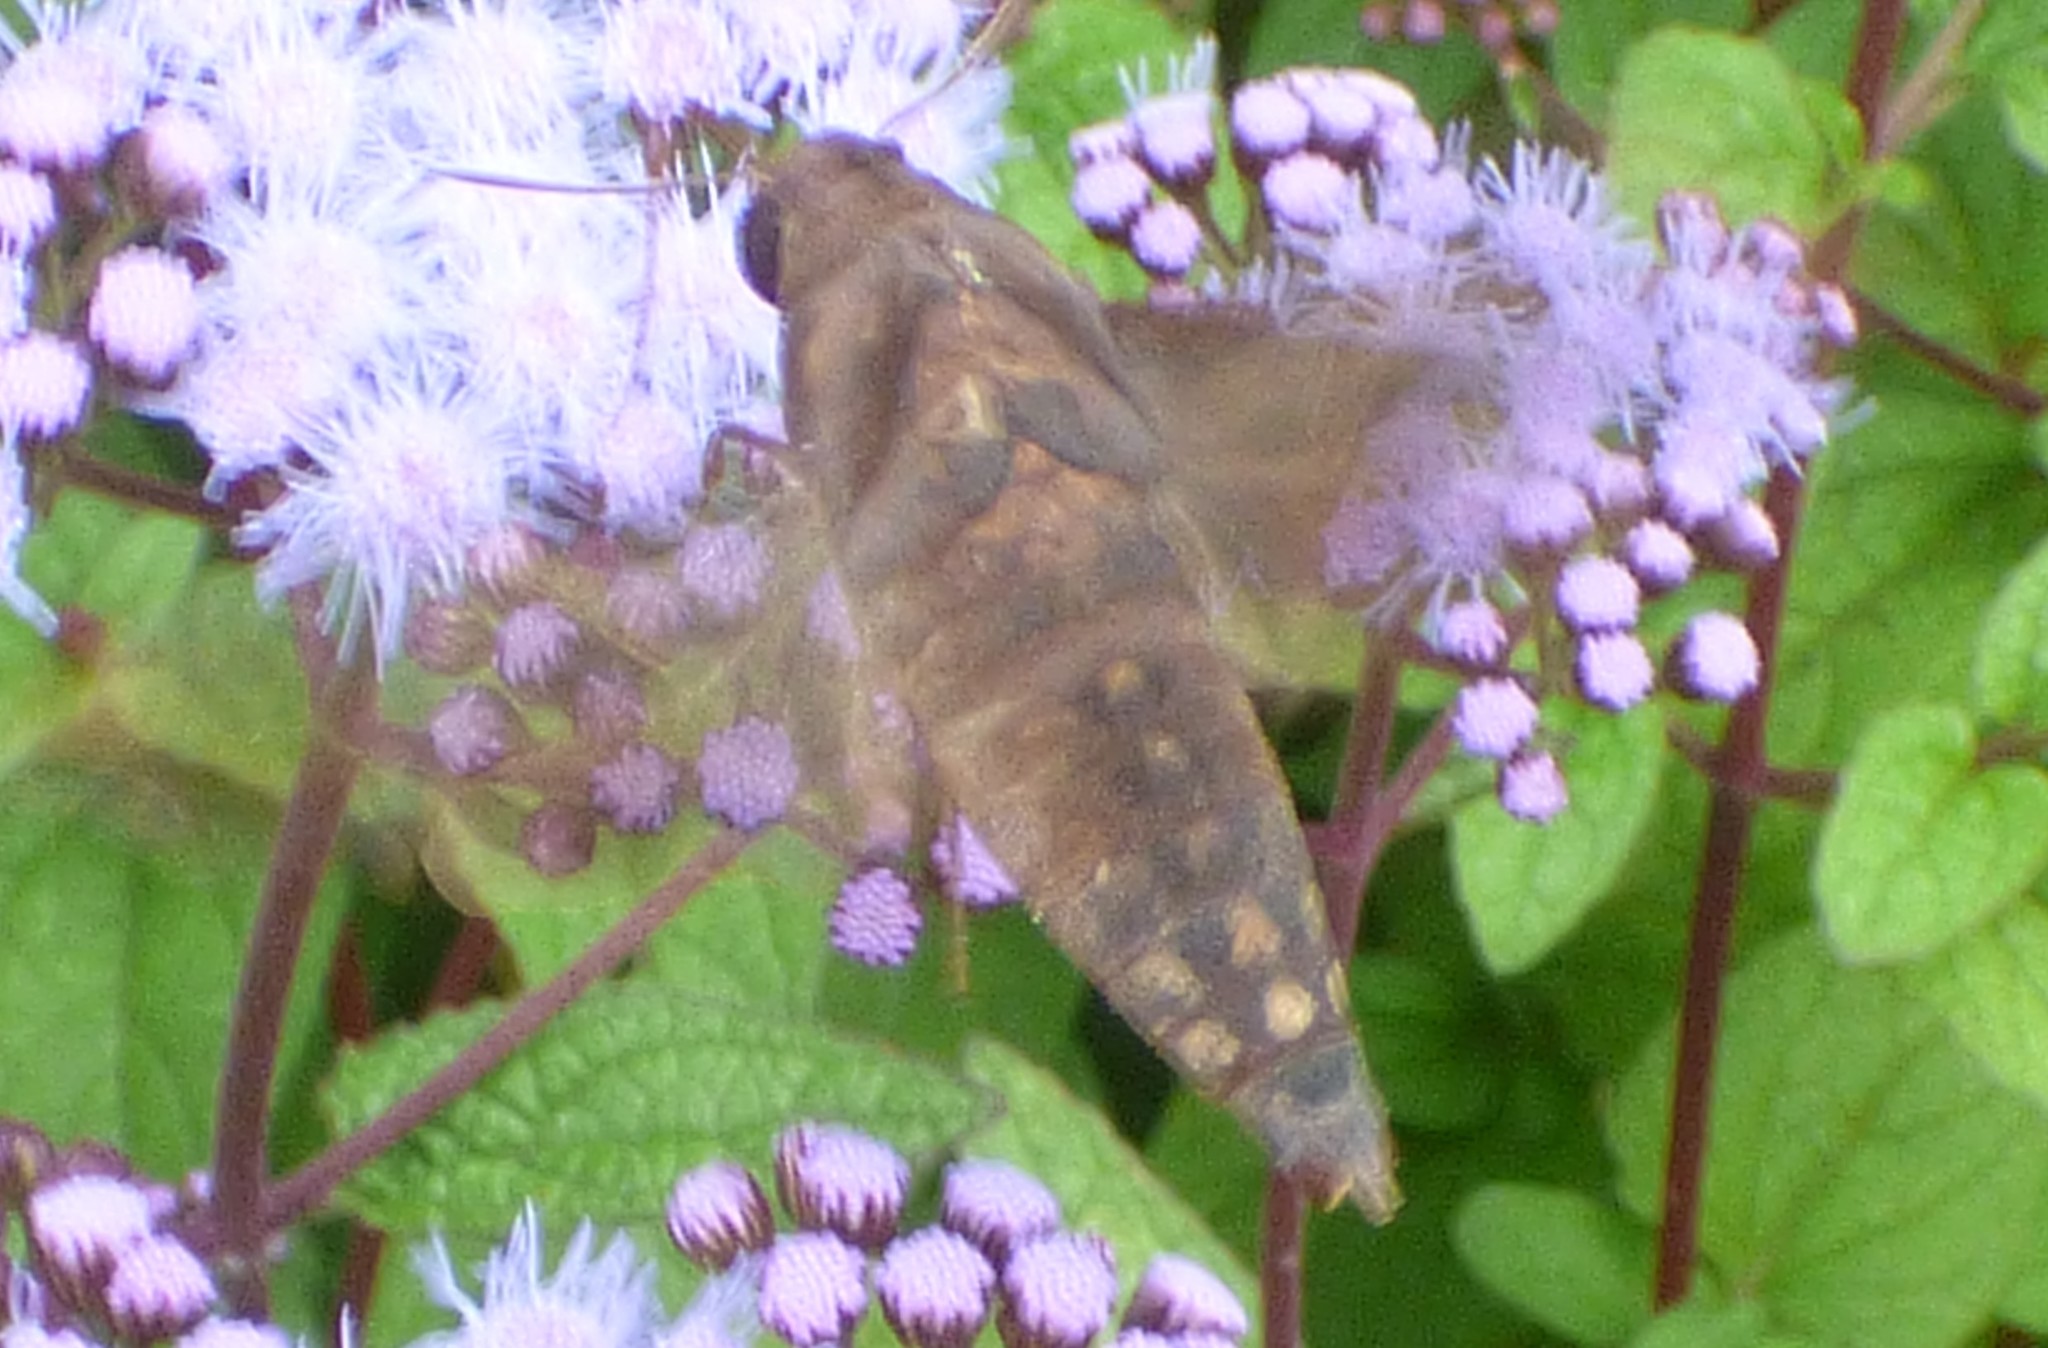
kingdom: Animalia
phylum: Arthropoda
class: Insecta
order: Lepidoptera
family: Sphingidae
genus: Enyo
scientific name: Enyo lugubris
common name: Mournful sphinx
